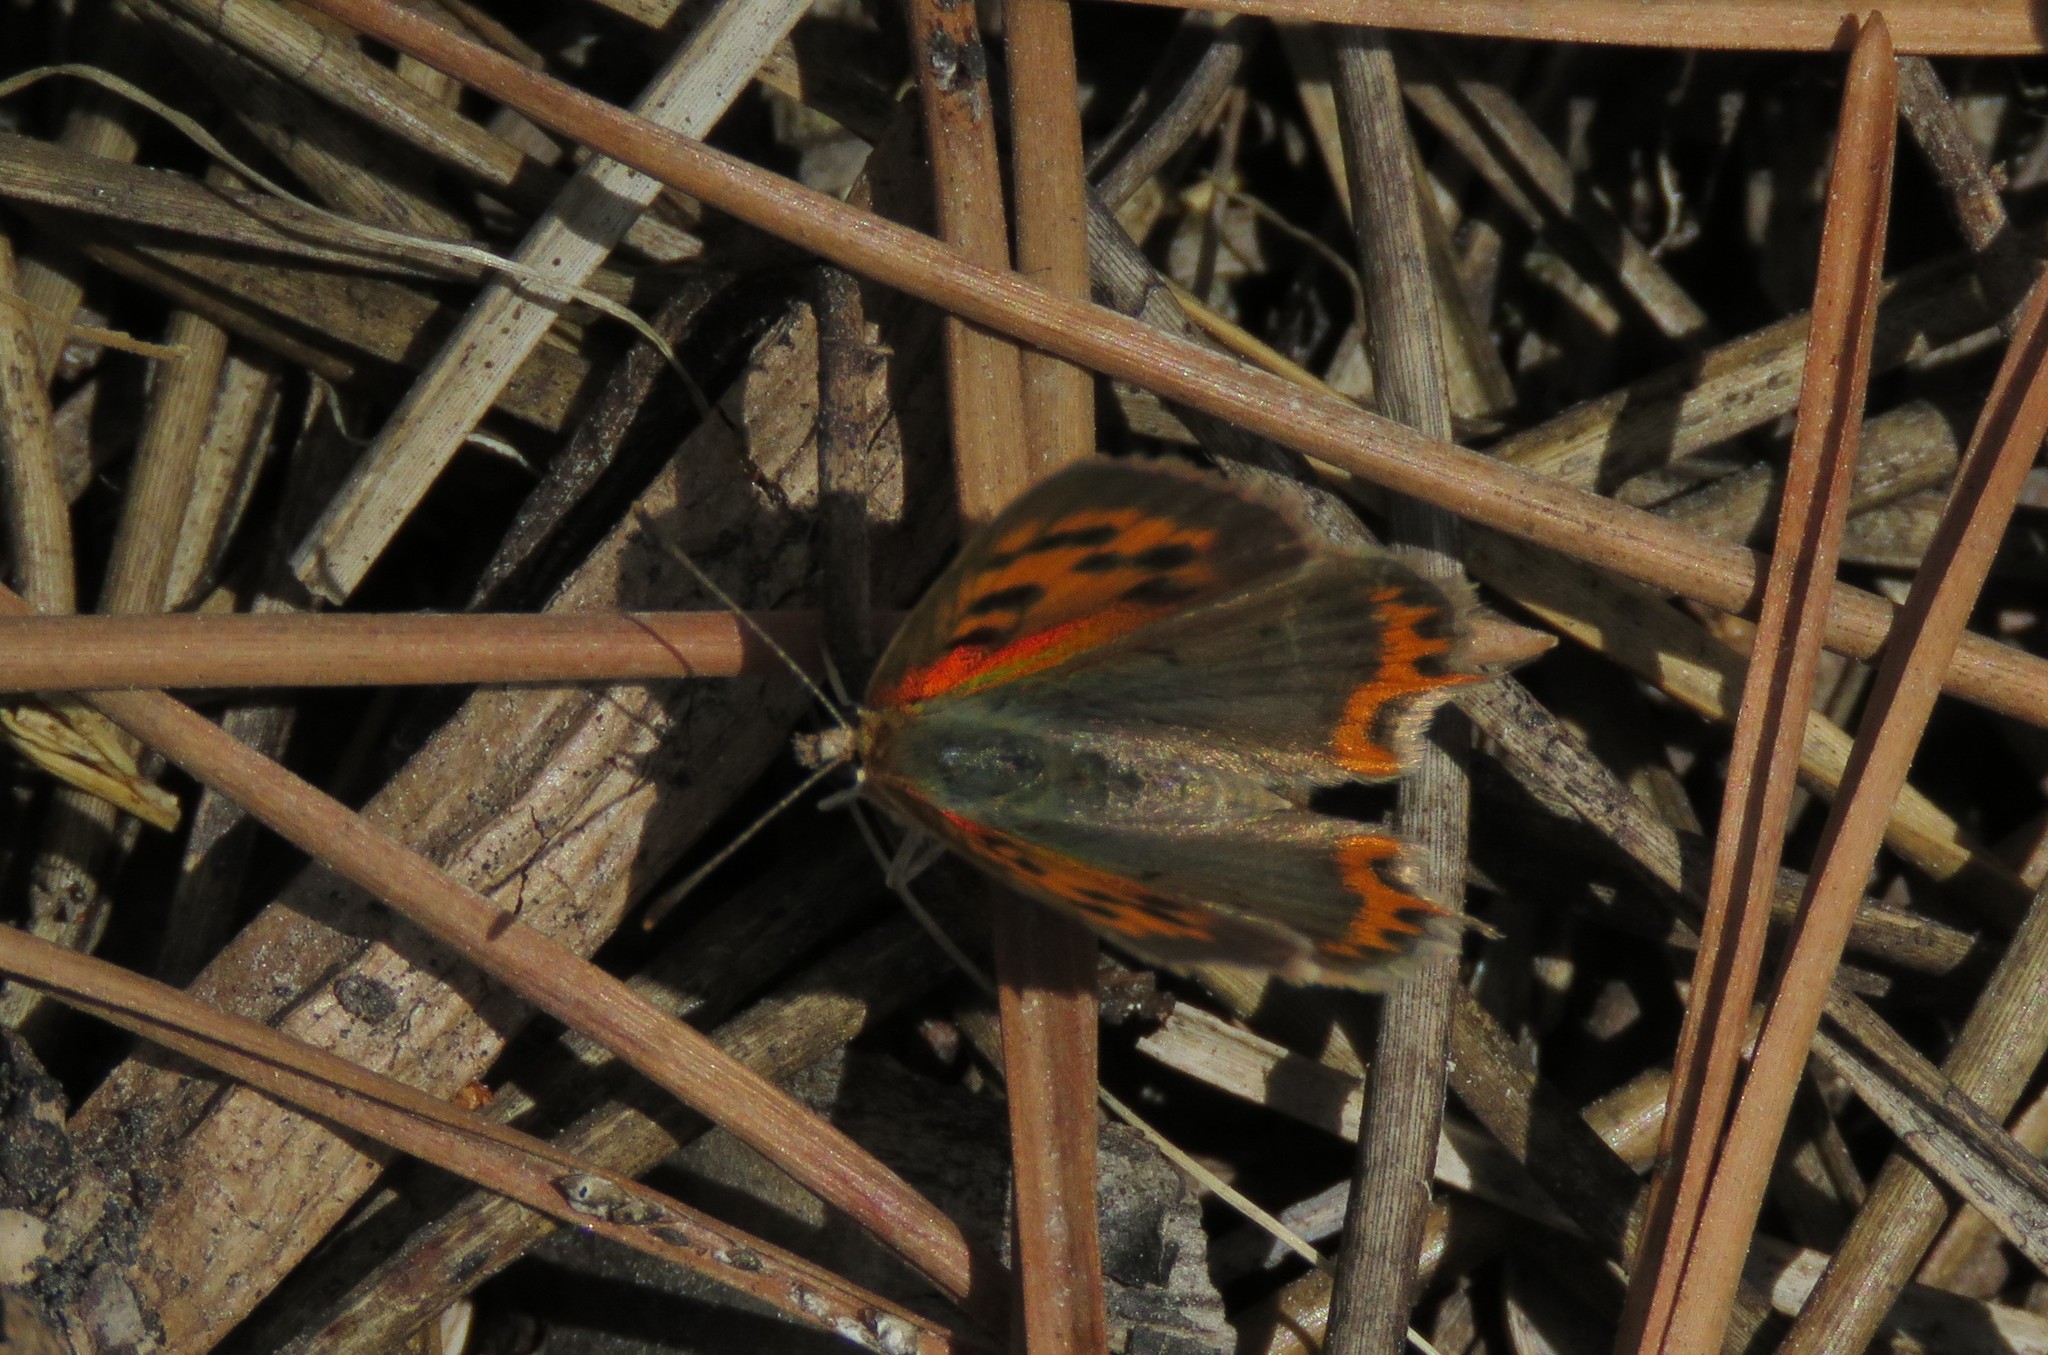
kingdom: Animalia
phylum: Arthropoda
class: Insecta
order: Lepidoptera
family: Lycaenidae
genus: Lycaena
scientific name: Lycaena phlaeas
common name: Small copper
